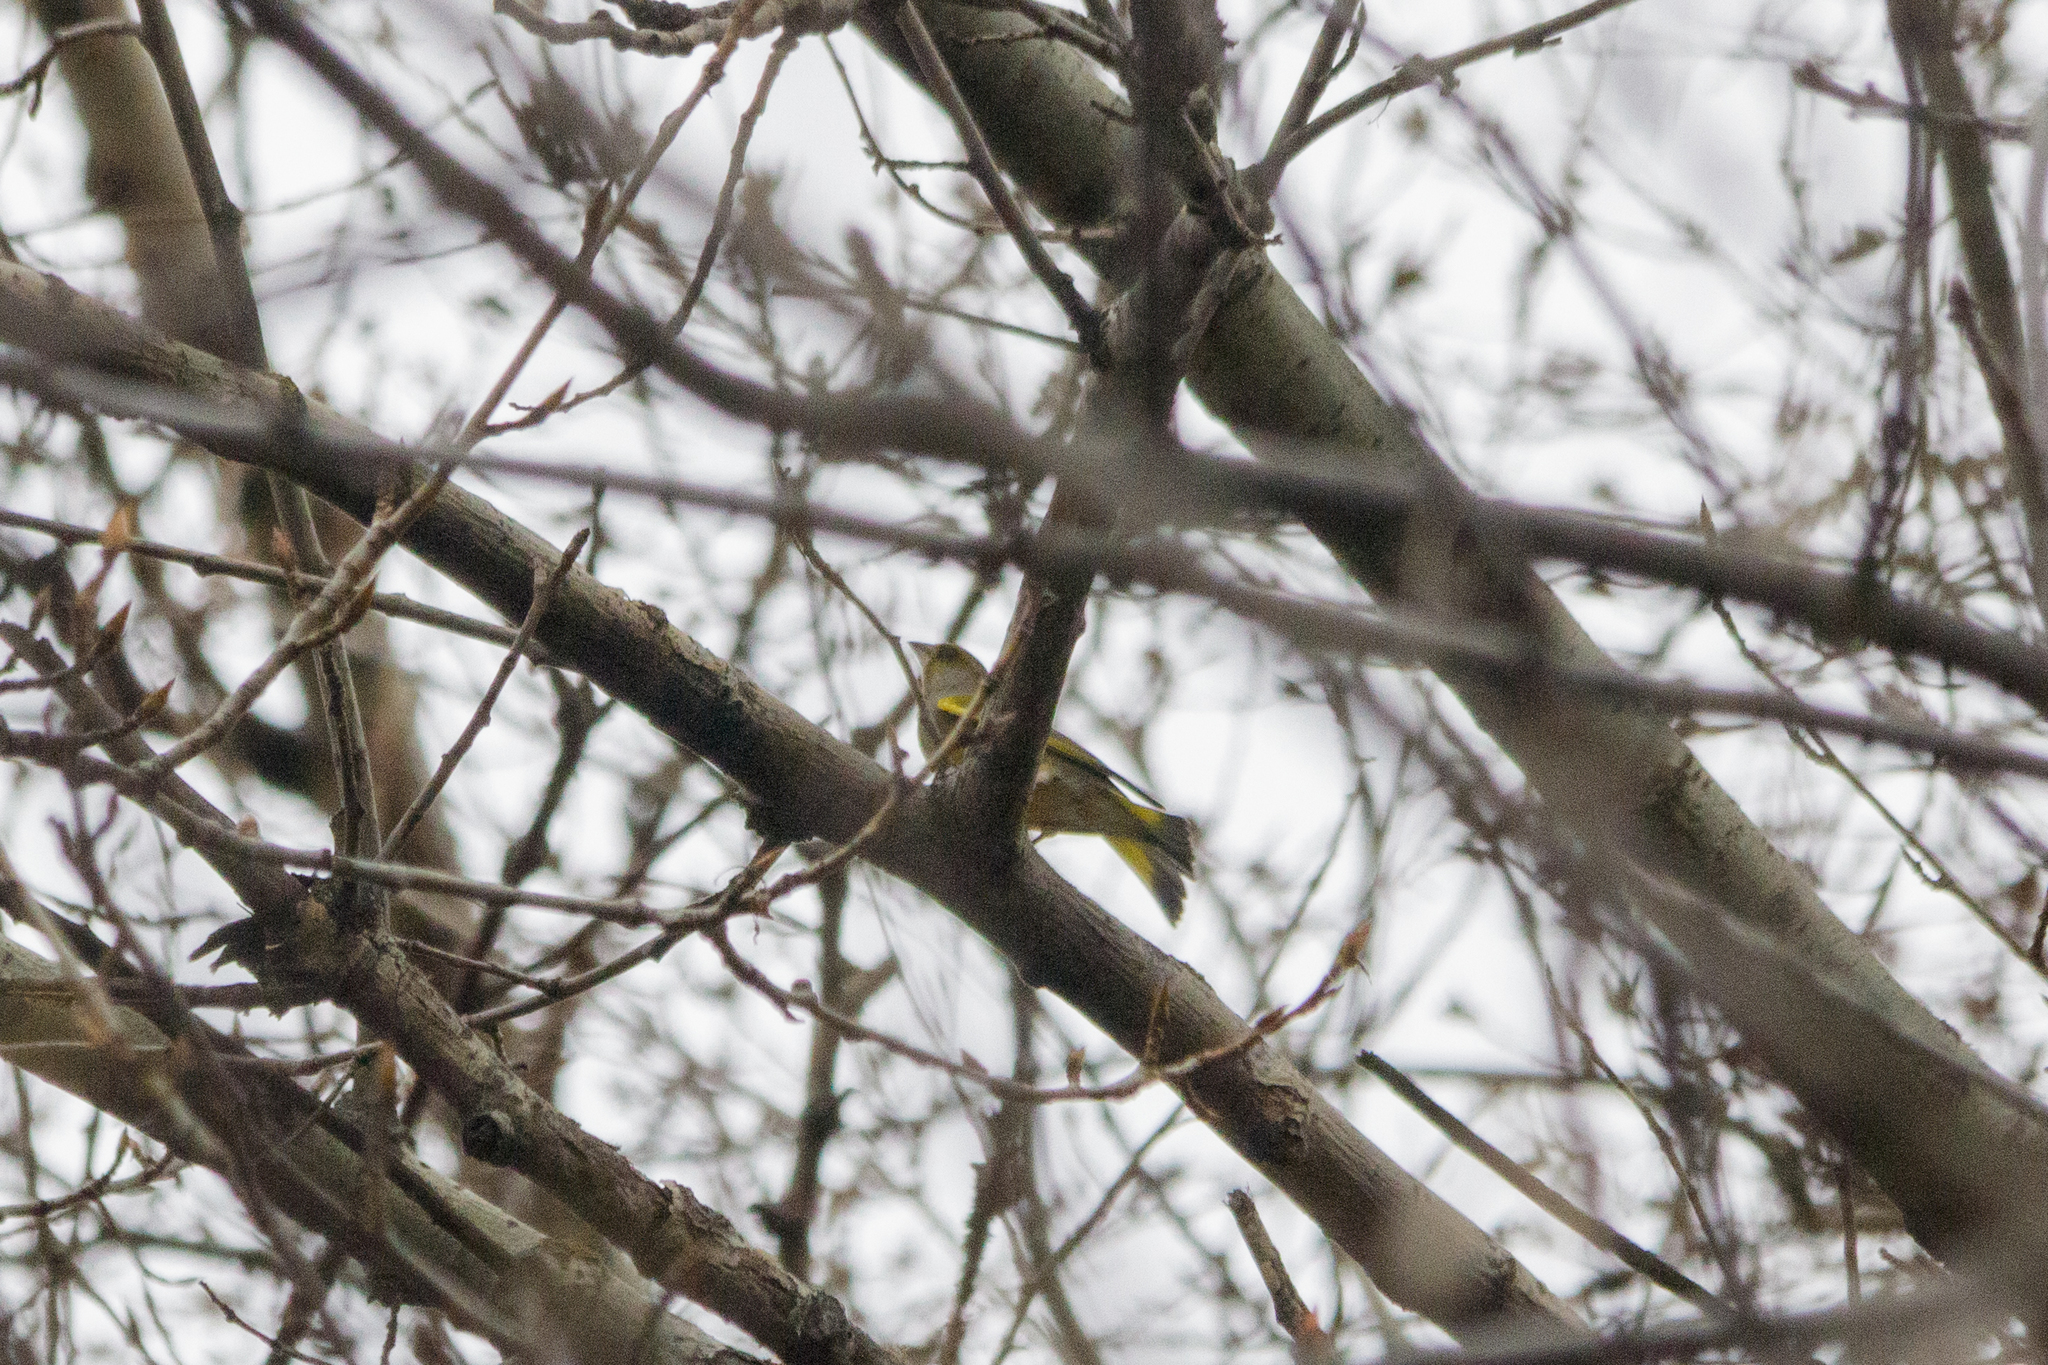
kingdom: Plantae
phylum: Tracheophyta
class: Liliopsida
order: Poales
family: Poaceae
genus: Chloris
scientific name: Chloris chloris
